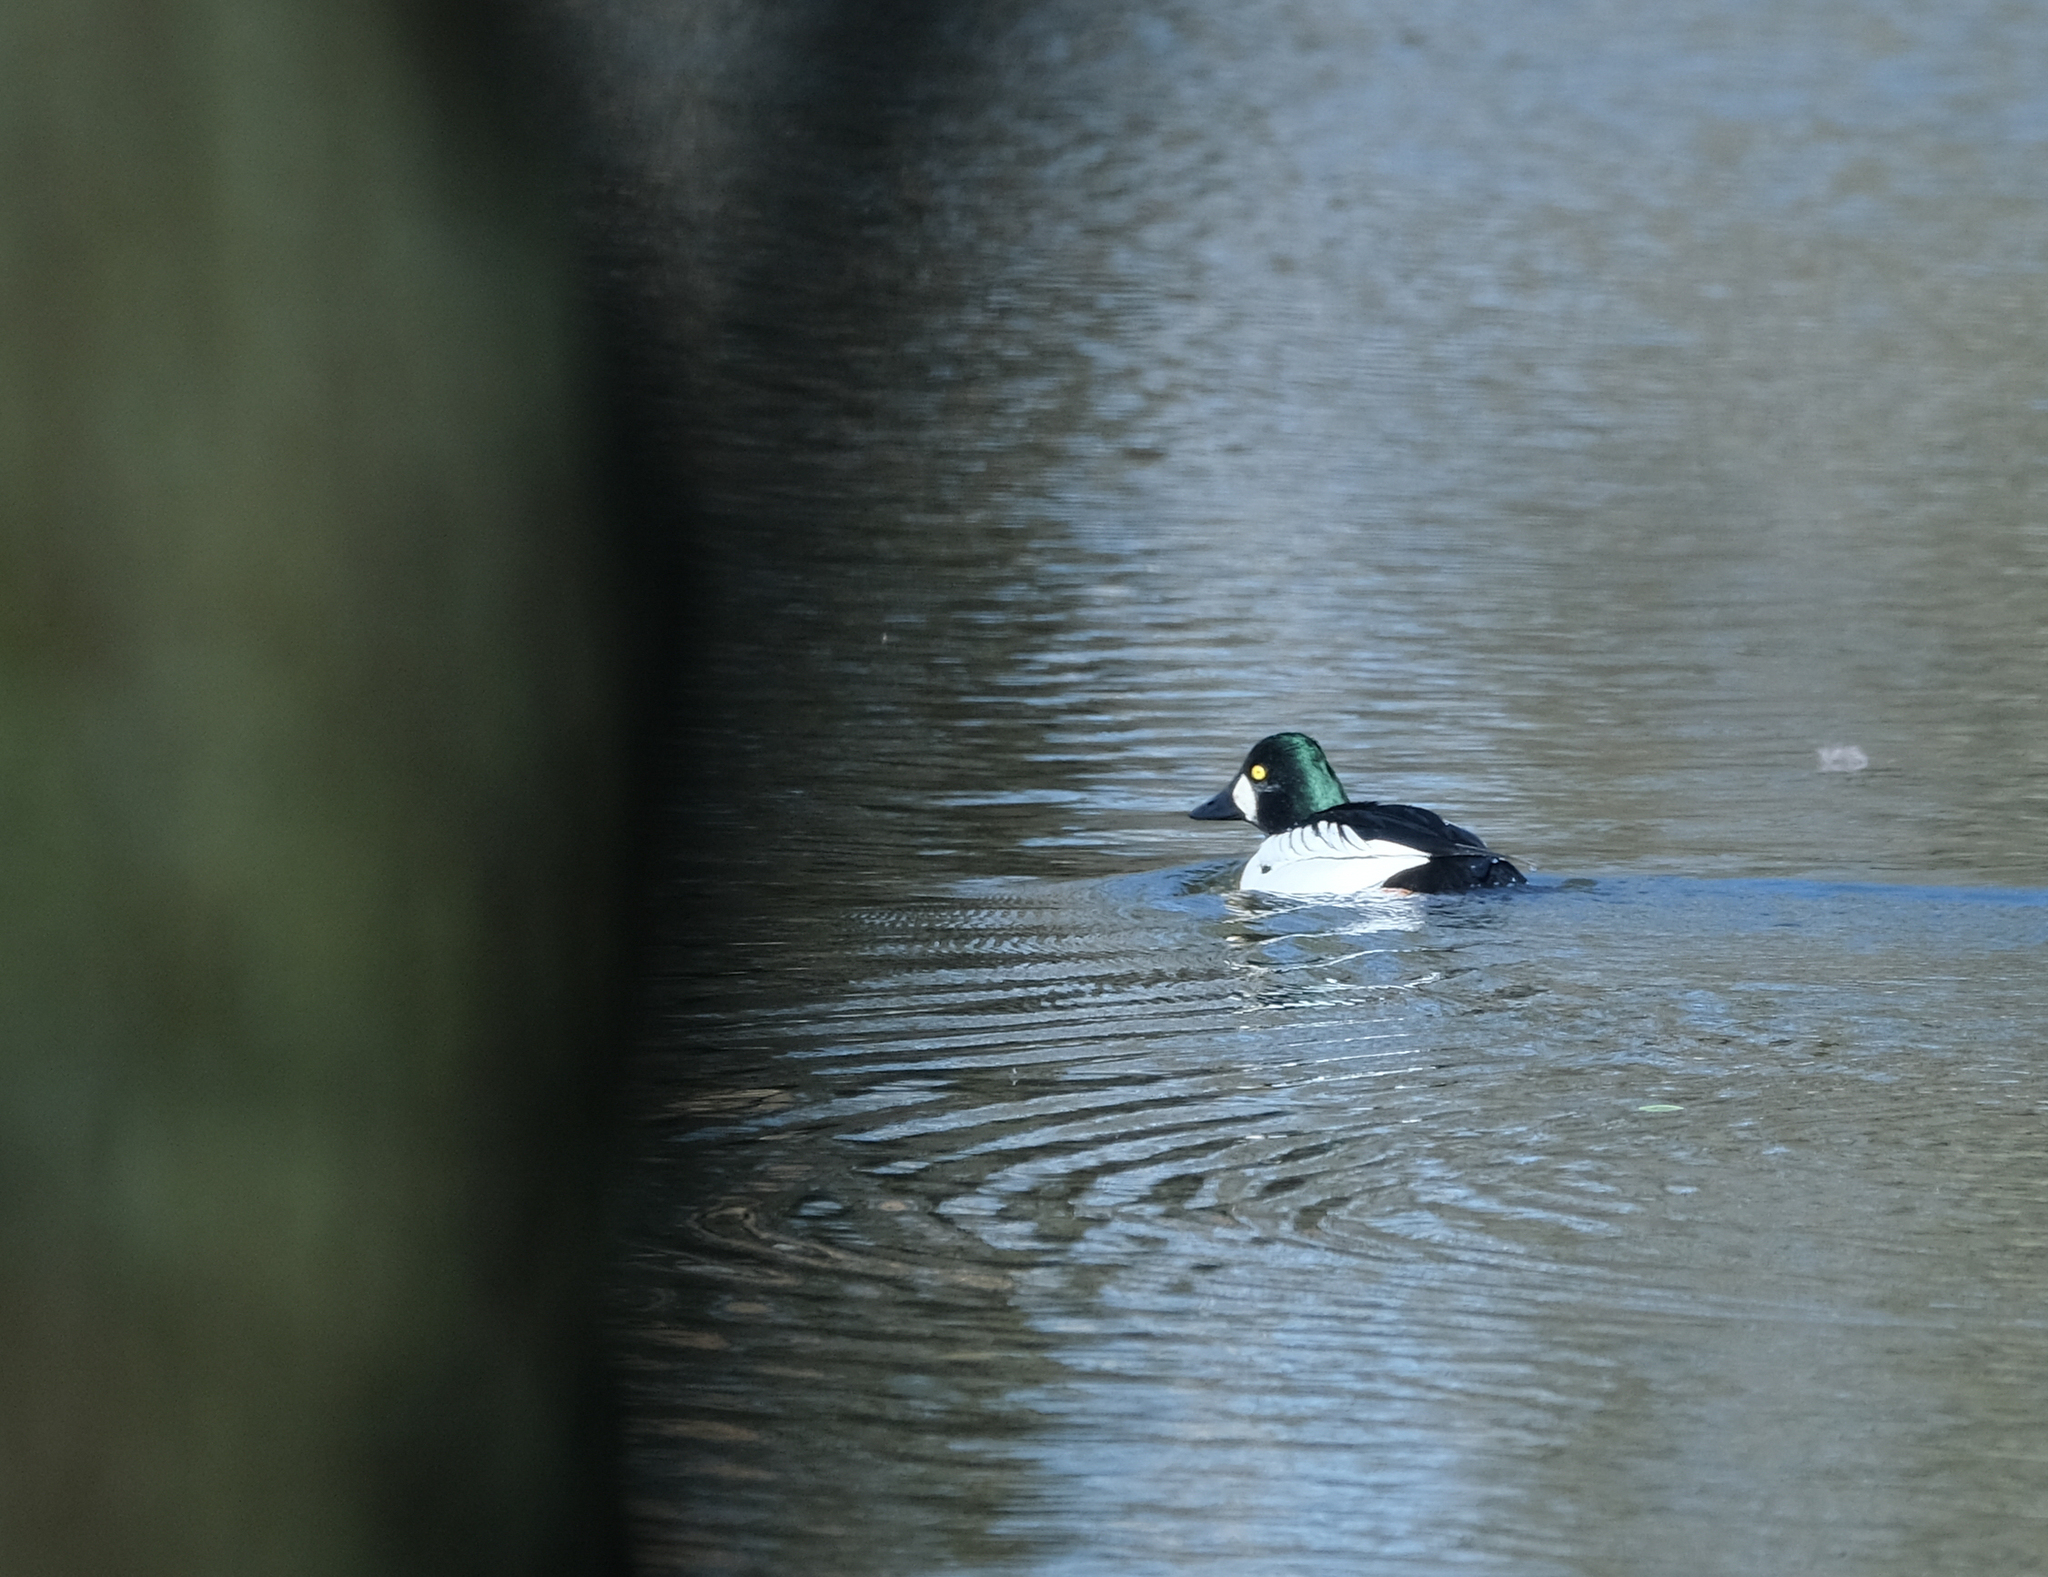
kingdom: Animalia
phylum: Chordata
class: Aves
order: Anseriformes
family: Anatidae
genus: Bucephala
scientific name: Bucephala clangula
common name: Common goldeneye
